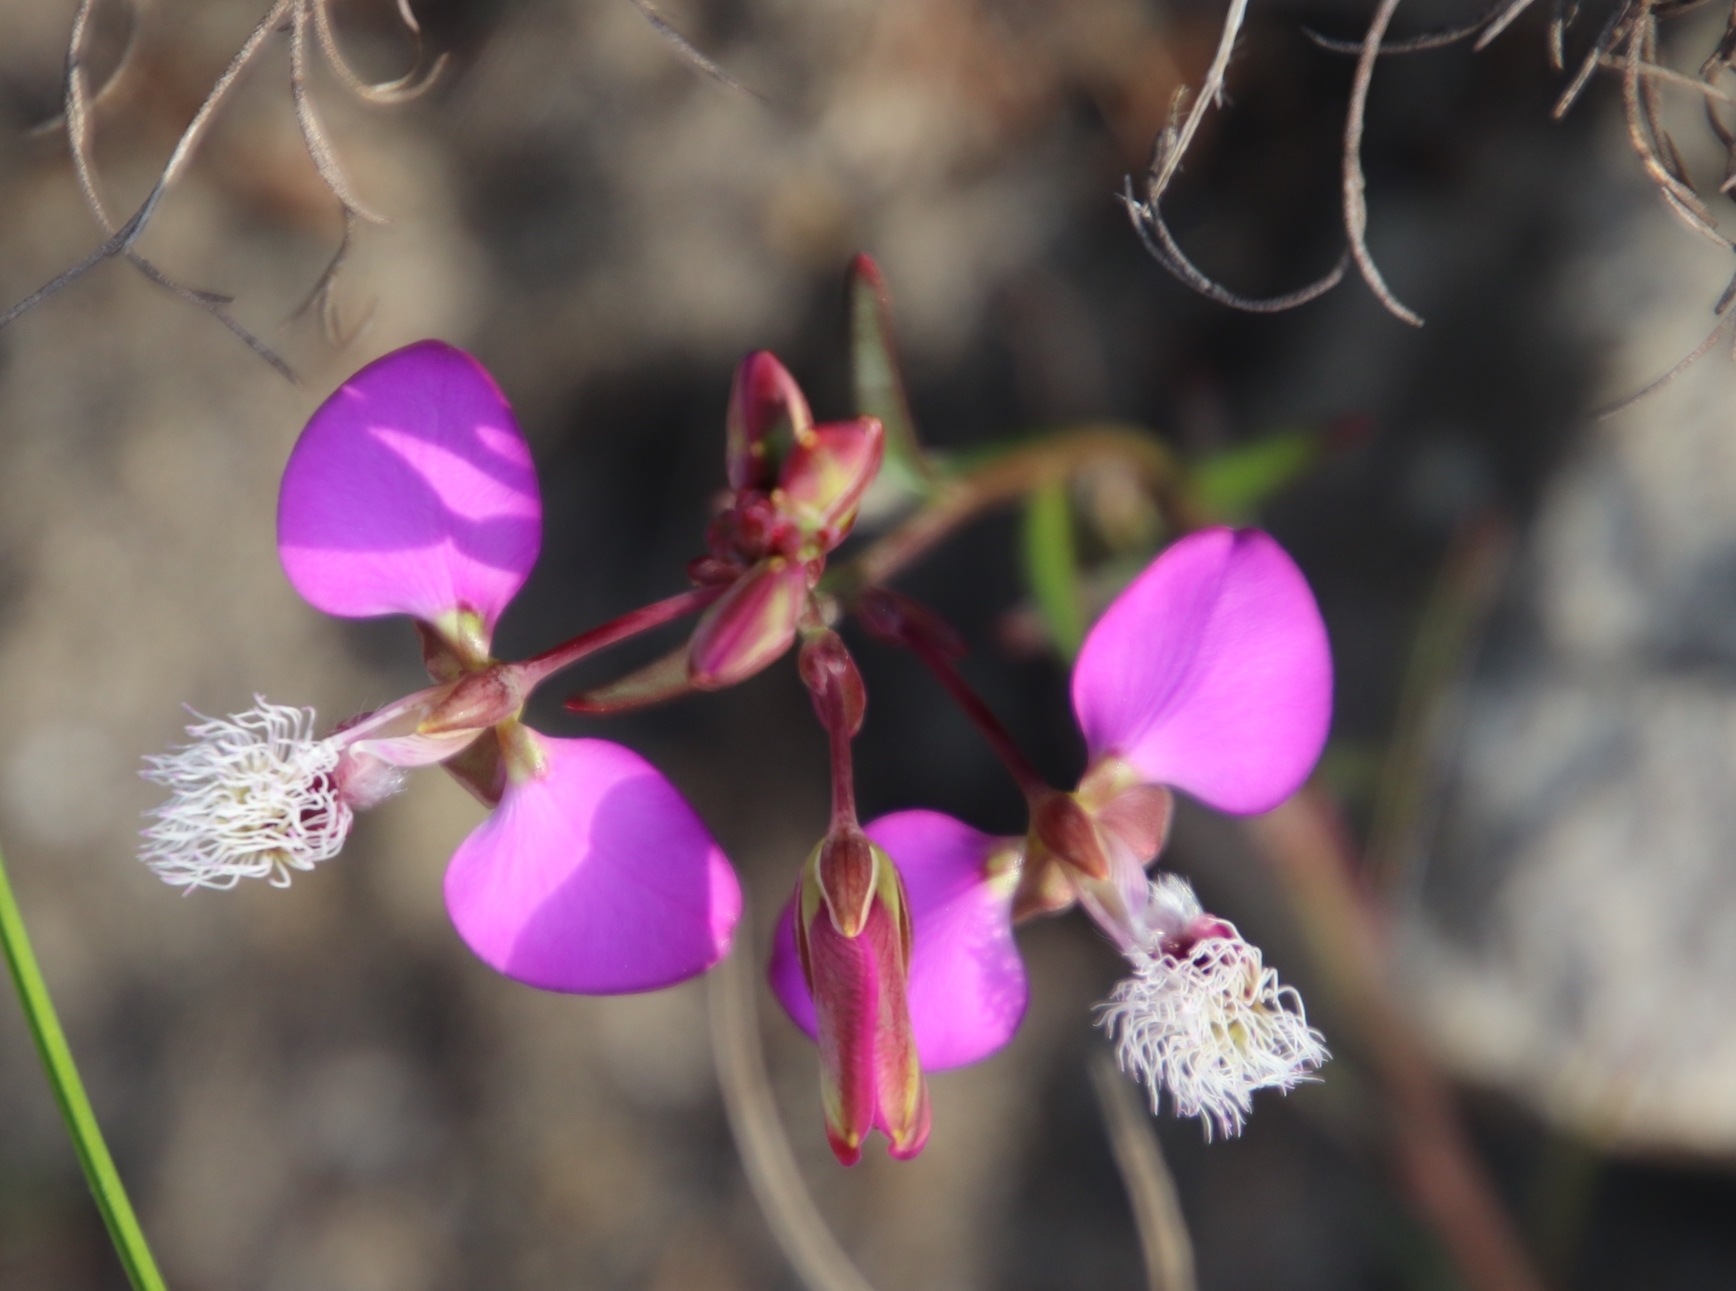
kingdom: Plantae
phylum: Tracheophyta
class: Magnoliopsida
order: Fabales
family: Polygalaceae
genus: Polygala
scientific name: Polygala bracteolata
